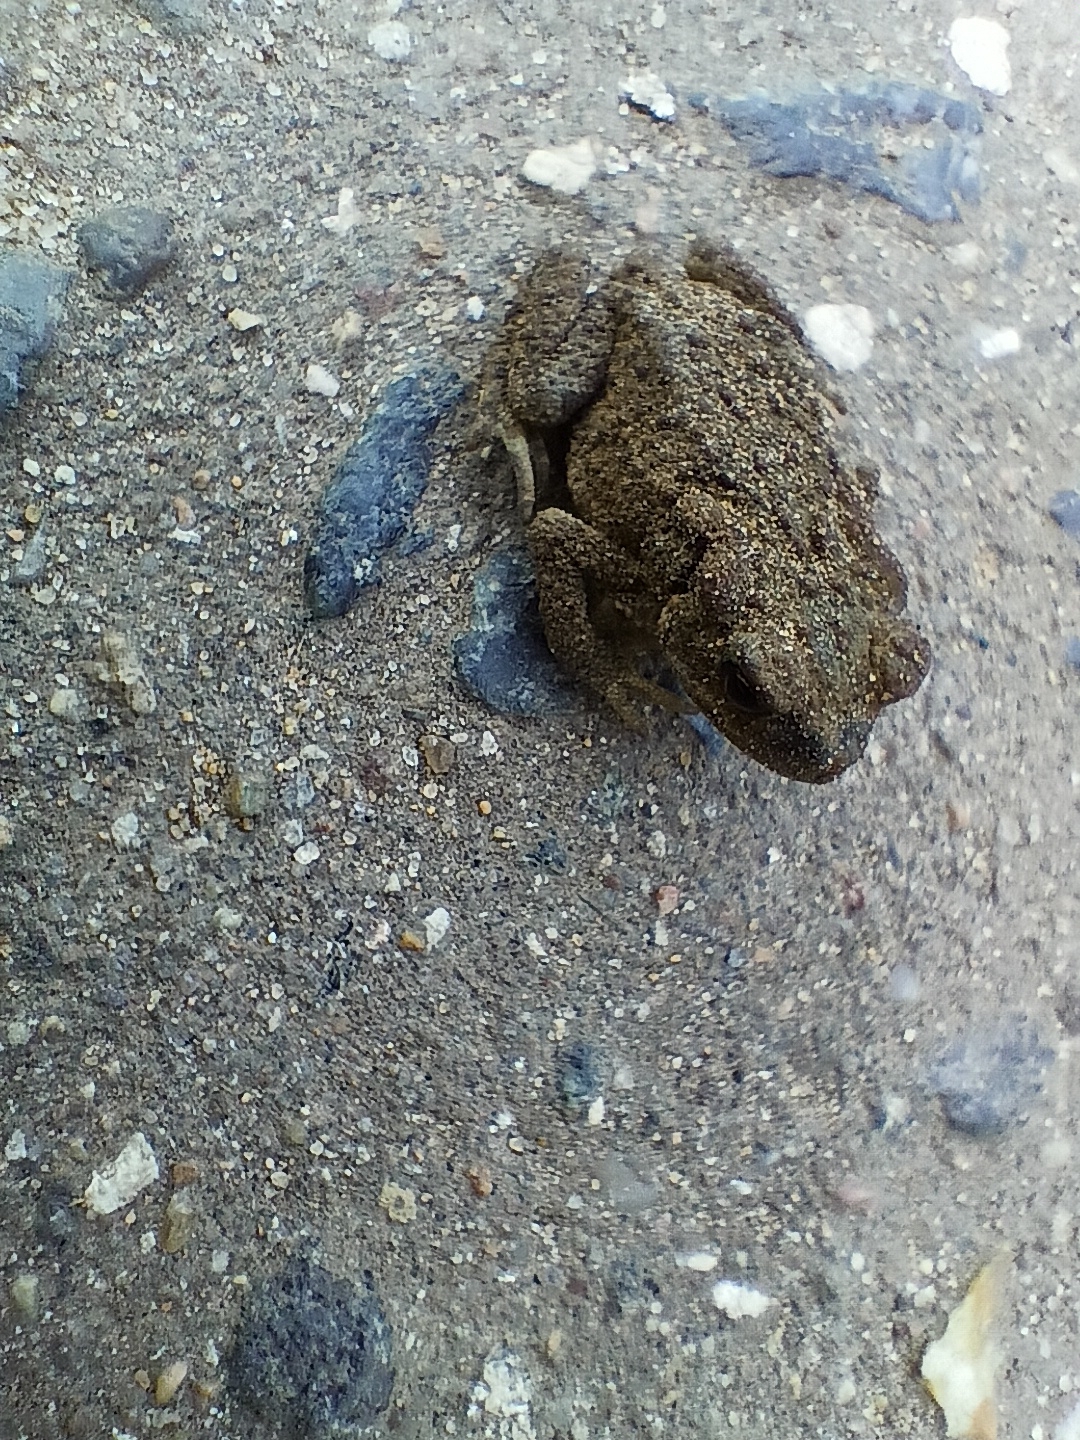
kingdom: Animalia
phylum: Chordata
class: Amphibia
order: Anura
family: Bufonidae
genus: Bufo
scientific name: Bufo bufo
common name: Common toad
